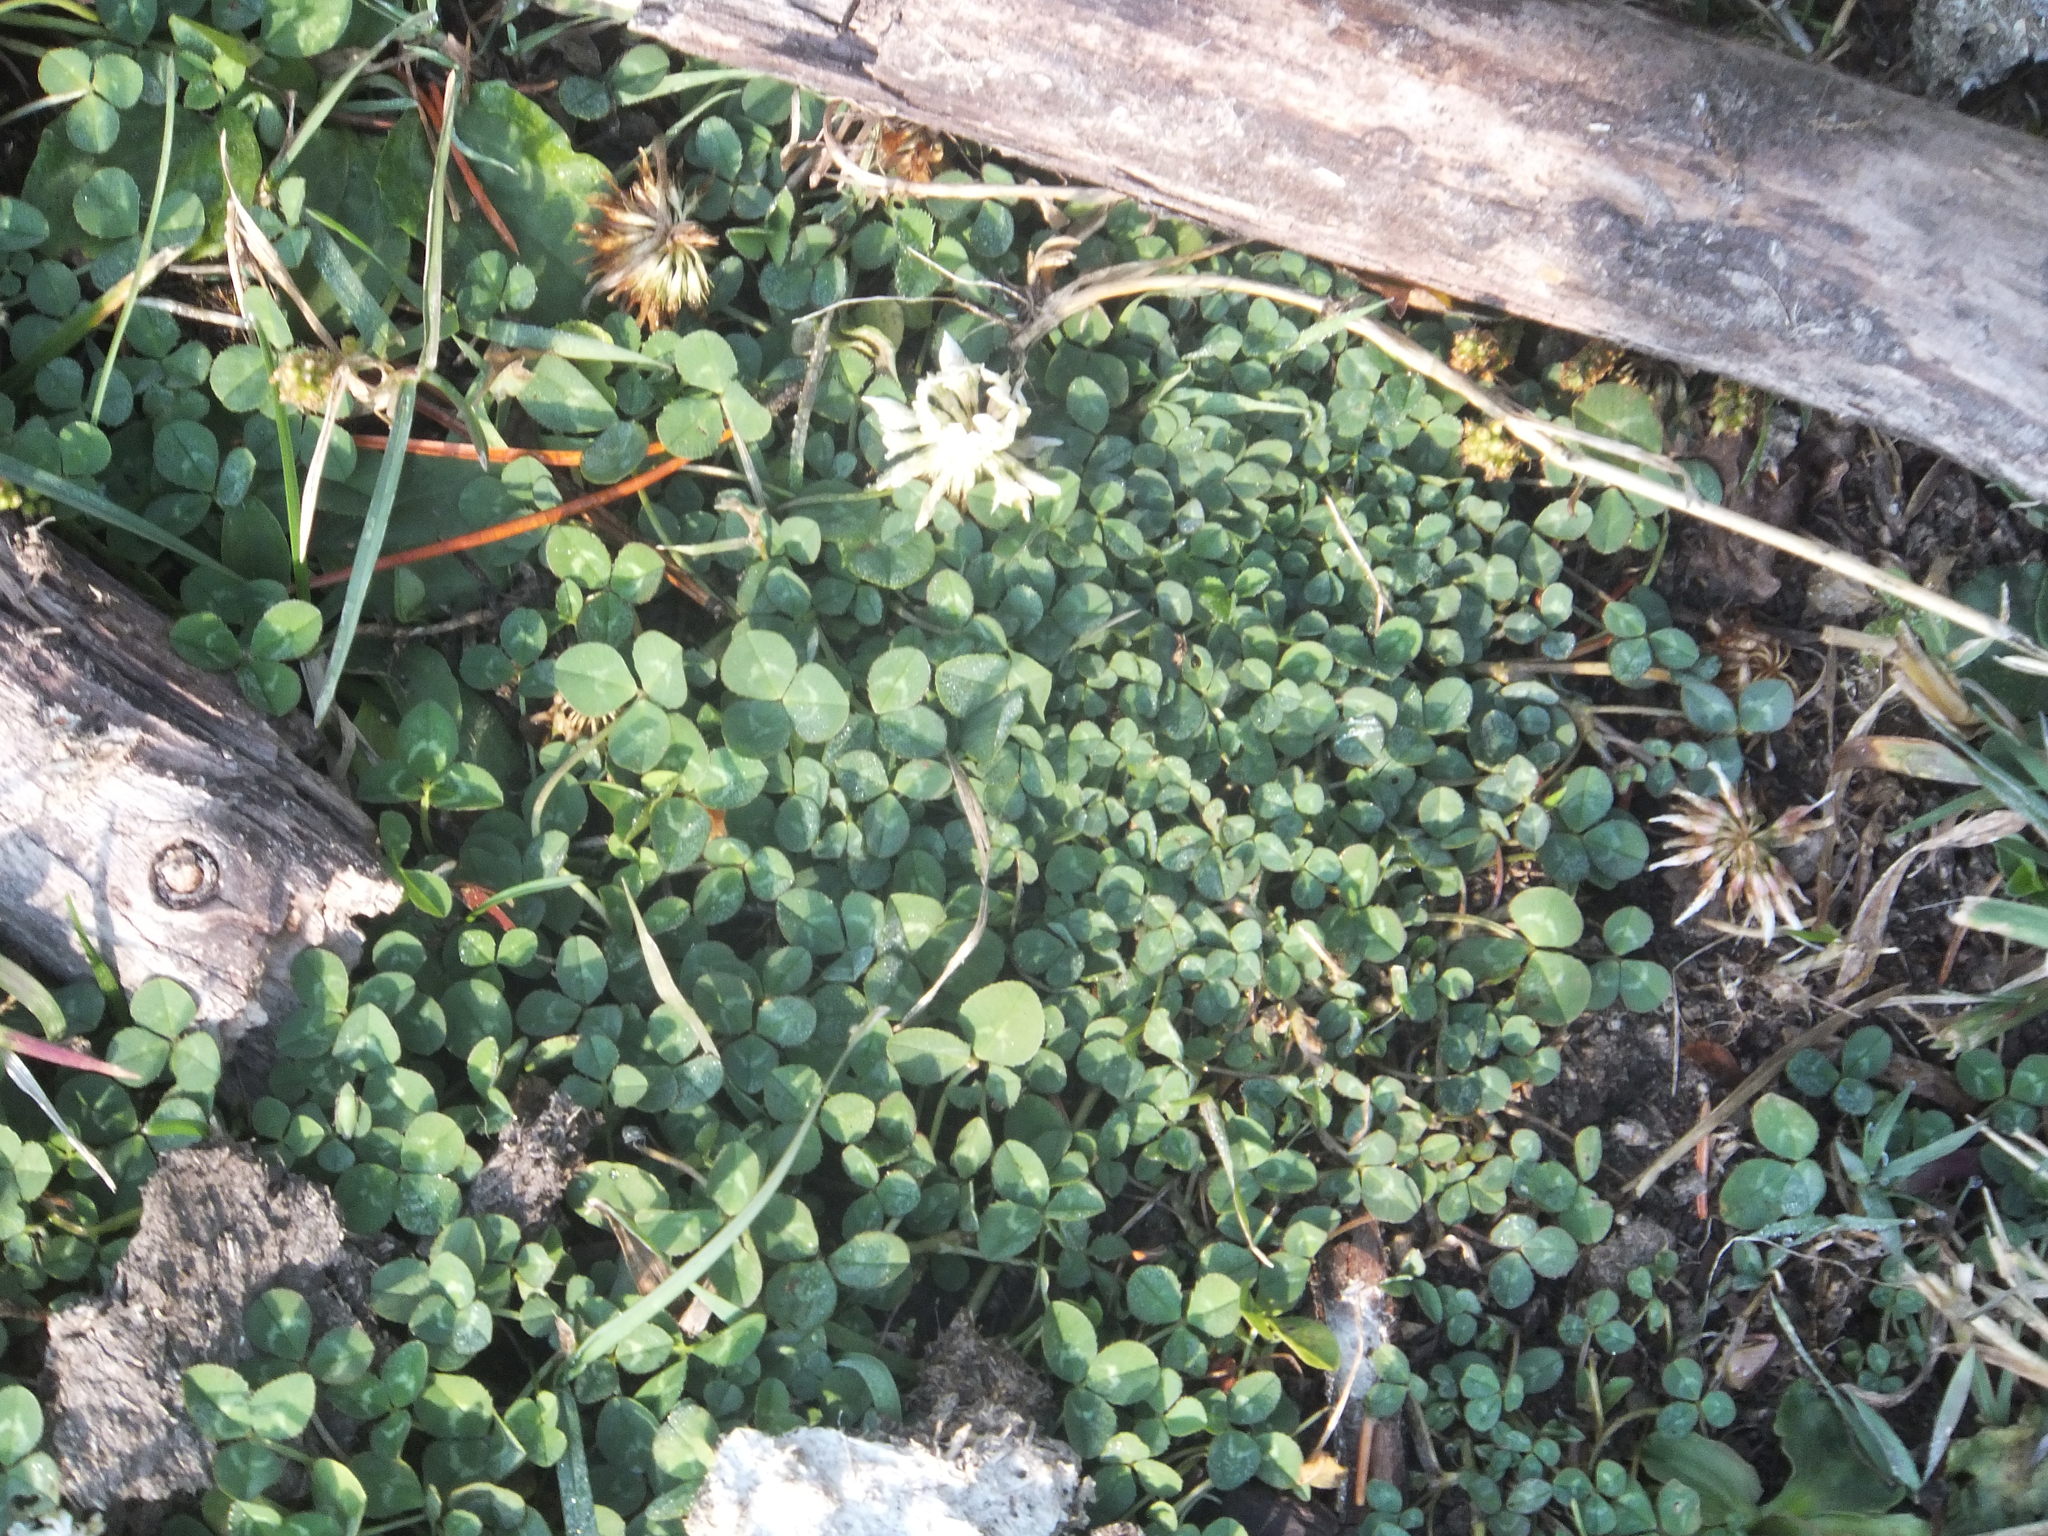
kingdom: Plantae
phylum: Tracheophyta
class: Magnoliopsida
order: Fabales
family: Fabaceae
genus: Trifolium
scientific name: Trifolium repens
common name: White clover
